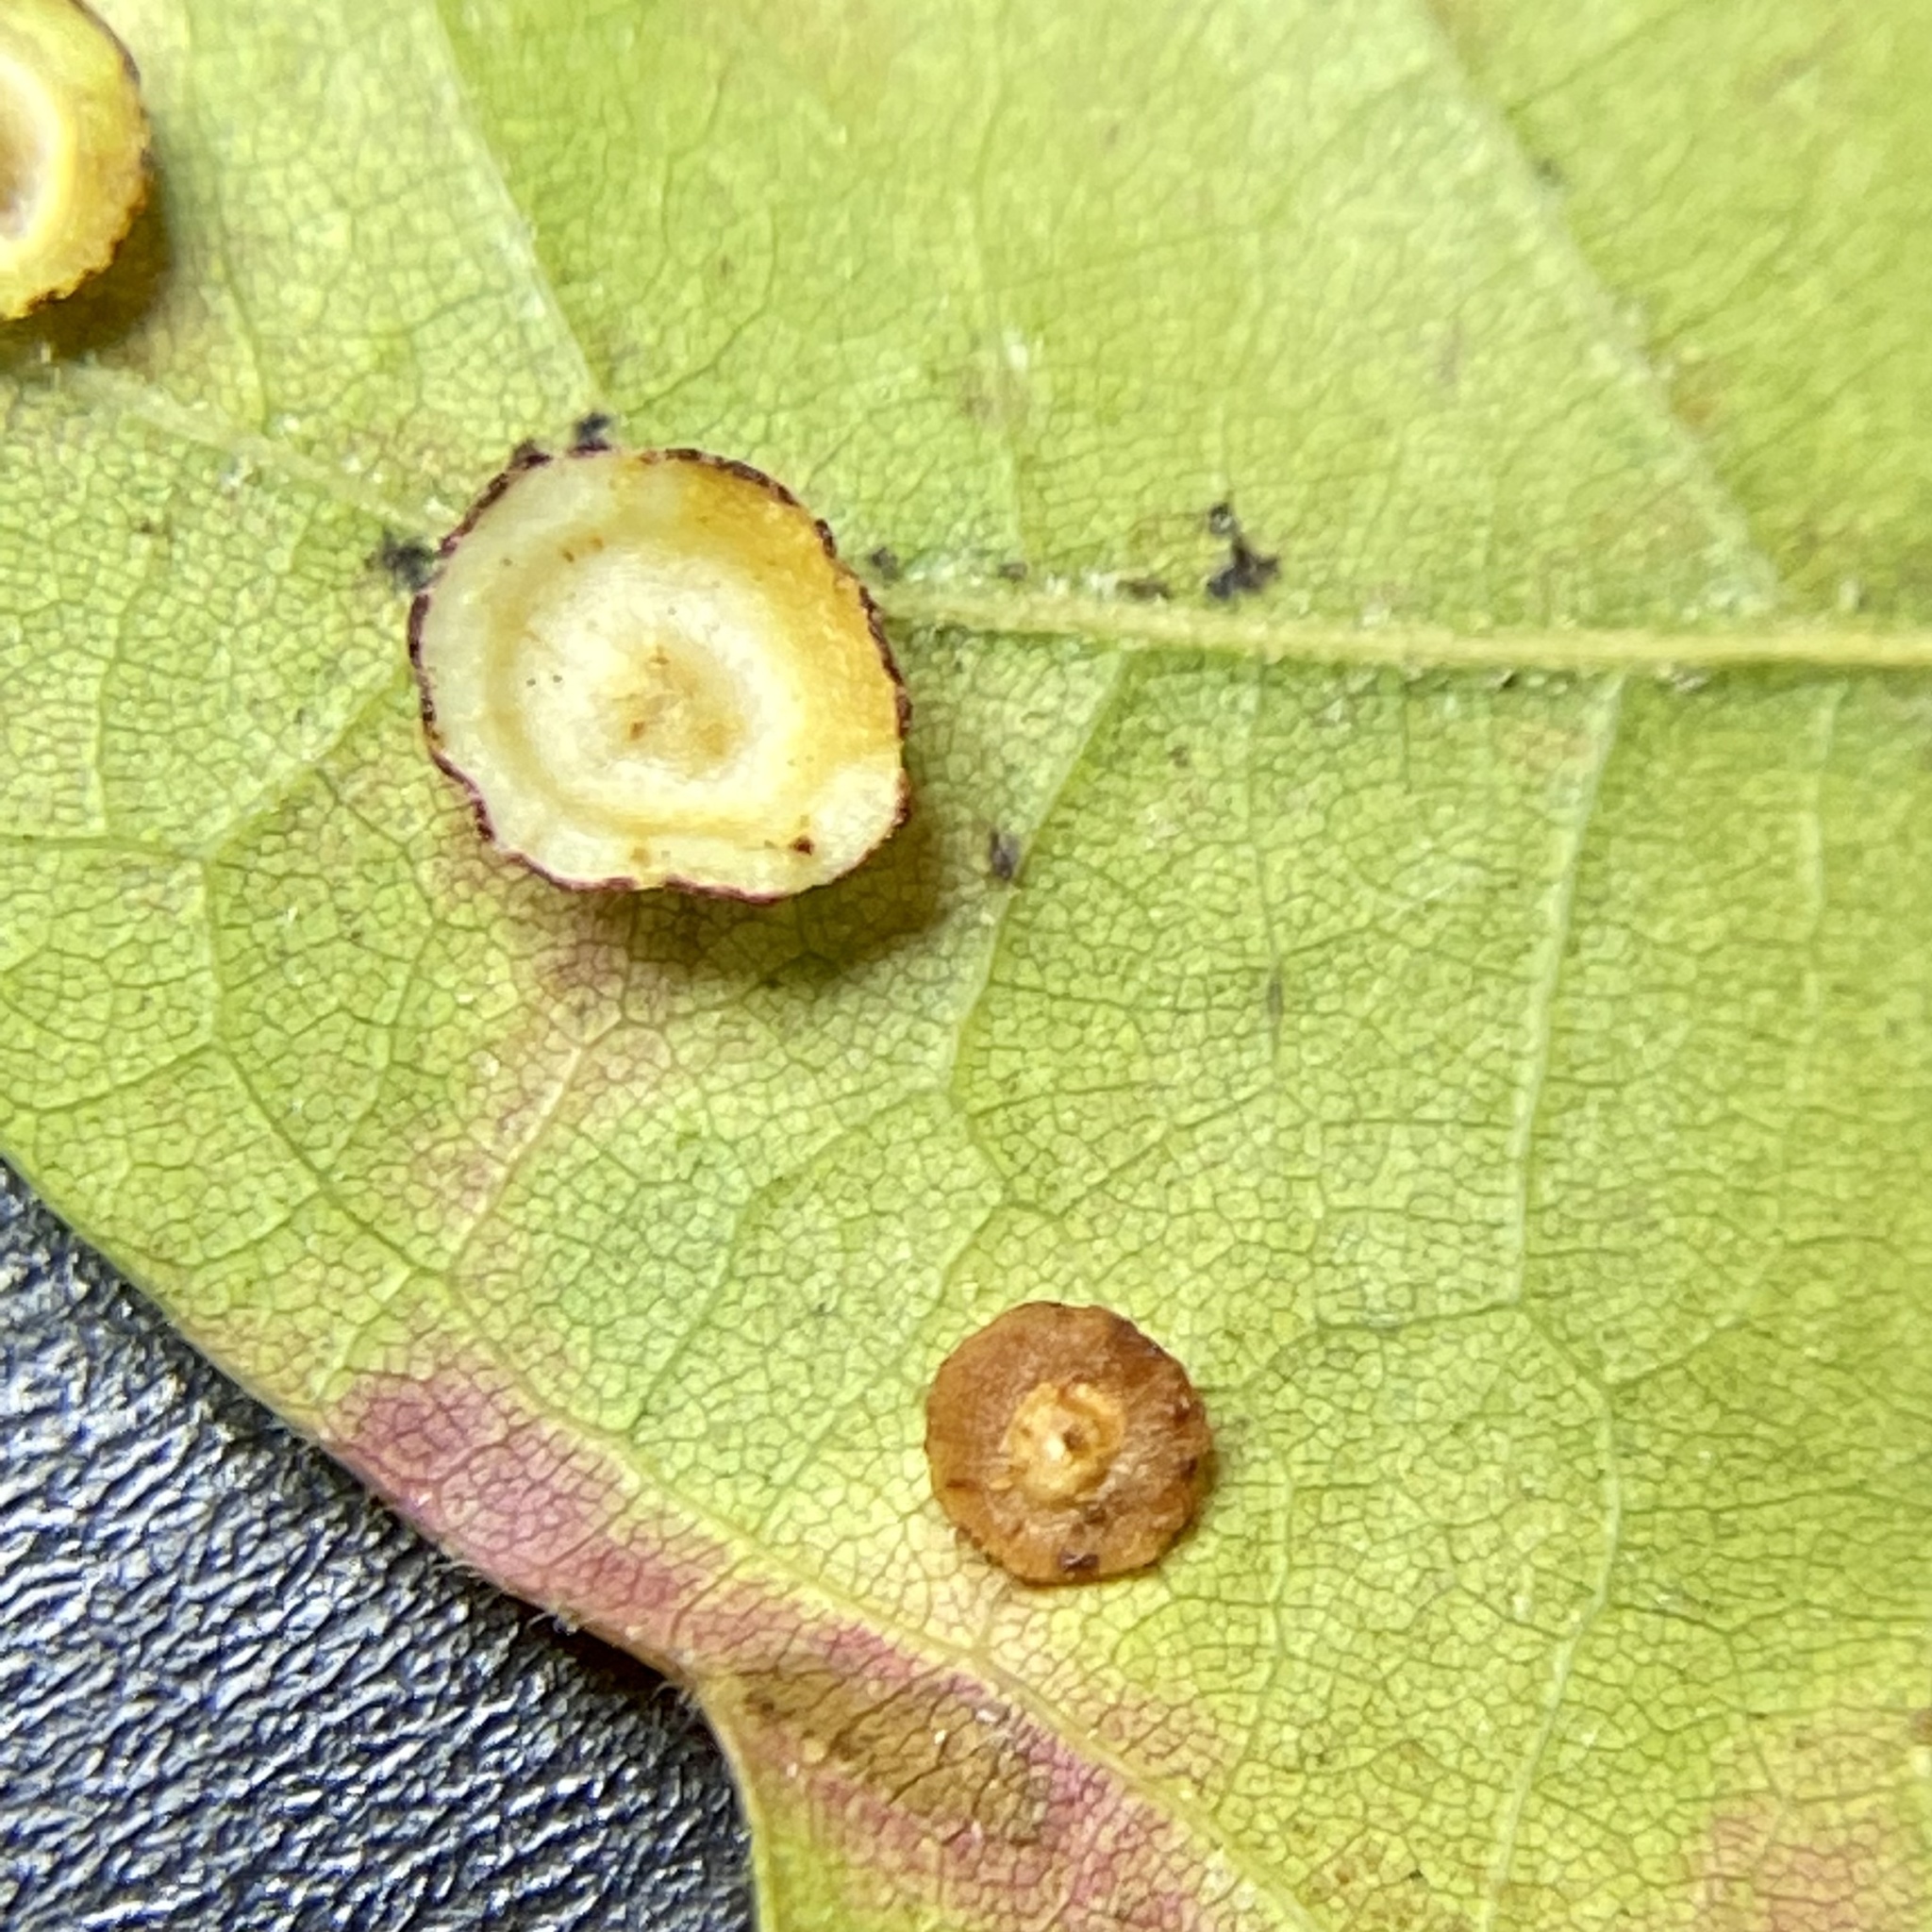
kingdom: Animalia
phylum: Arthropoda
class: Insecta
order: Hymenoptera
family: Cynipidae
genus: Phylloteras
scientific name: Phylloteras
